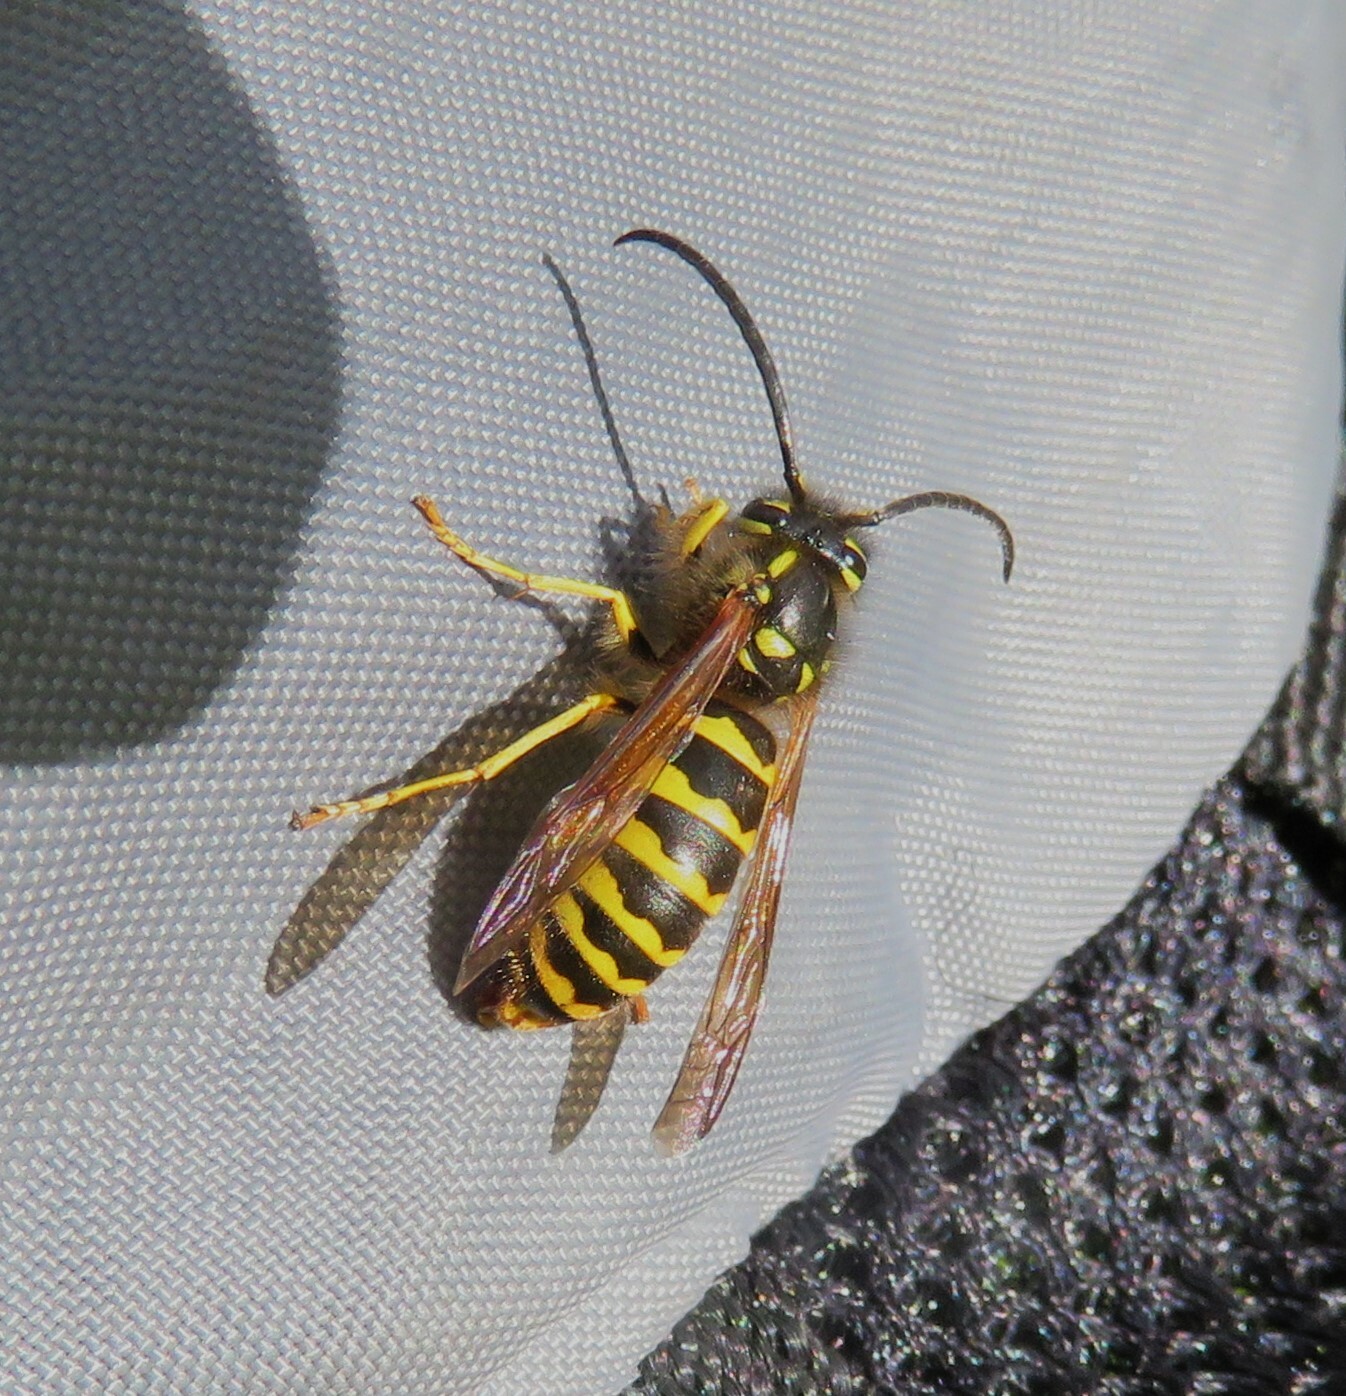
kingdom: Animalia
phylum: Arthropoda
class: Insecta
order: Hymenoptera
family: Vespidae
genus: Vespula
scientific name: Vespula flavopilosa
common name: Downy yellowjacket
